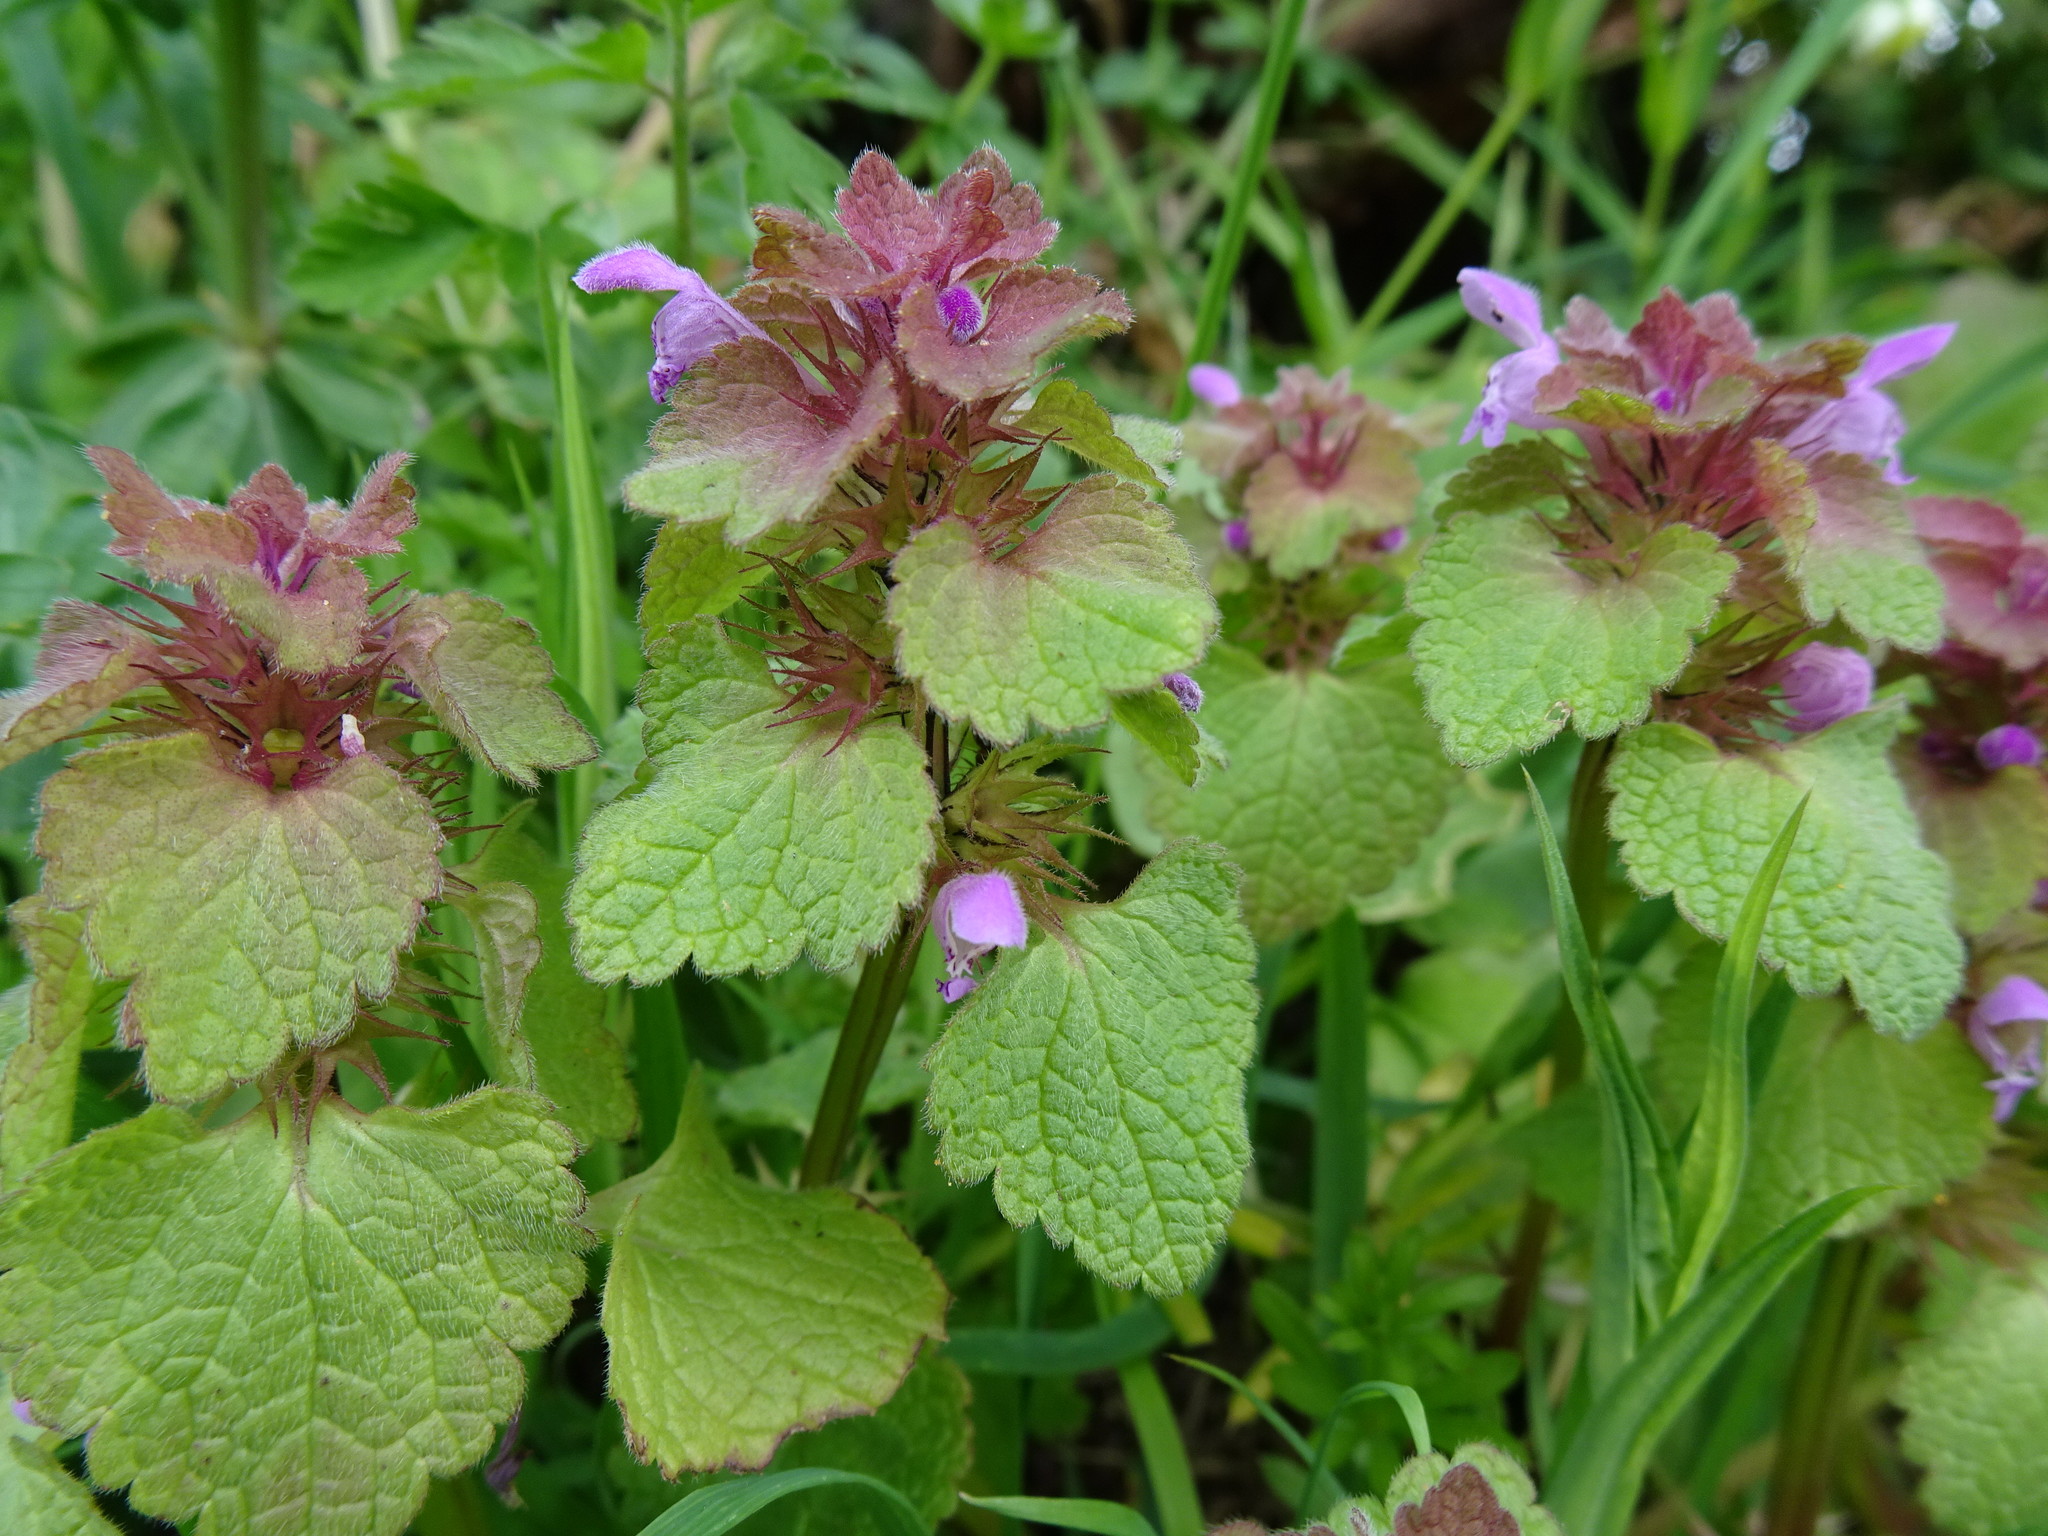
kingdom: Plantae
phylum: Tracheophyta
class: Magnoliopsida
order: Lamiales
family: Lamiaceae
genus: Lamium
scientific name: Lamium purpureum
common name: Red dead-nettle
